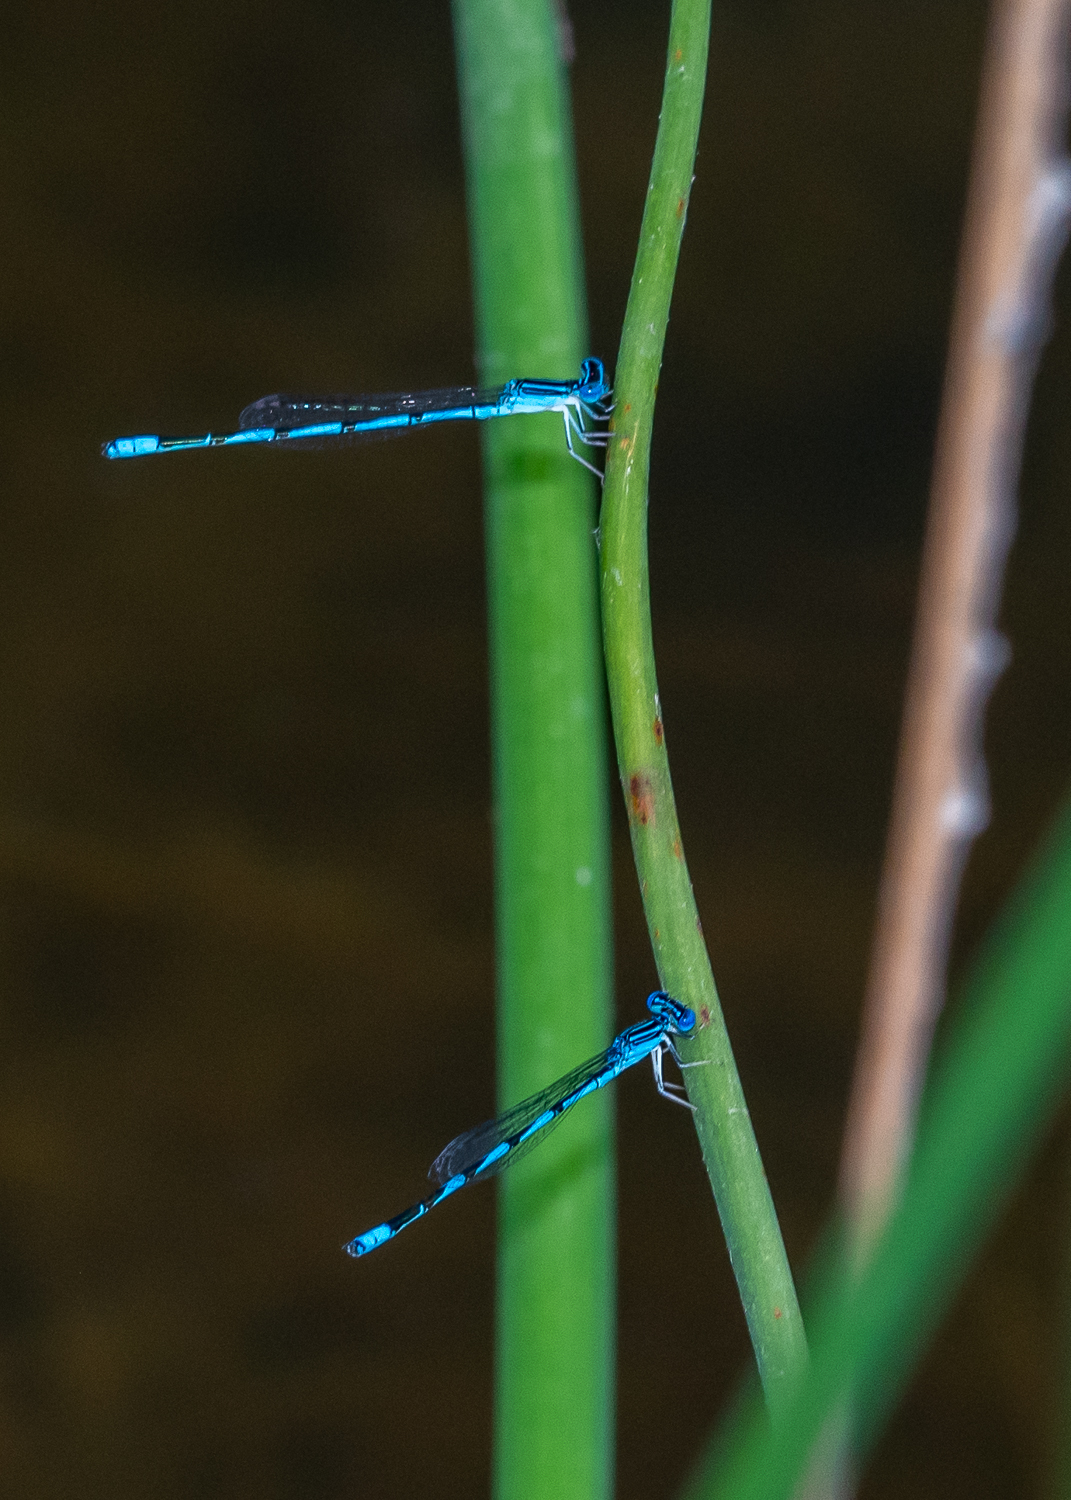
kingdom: Animalia
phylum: Arthropoda
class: Insecta
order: Odonata
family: Coenagrionidae
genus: Enallagma
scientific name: Enallagma basidens
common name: Double-striped bluet
